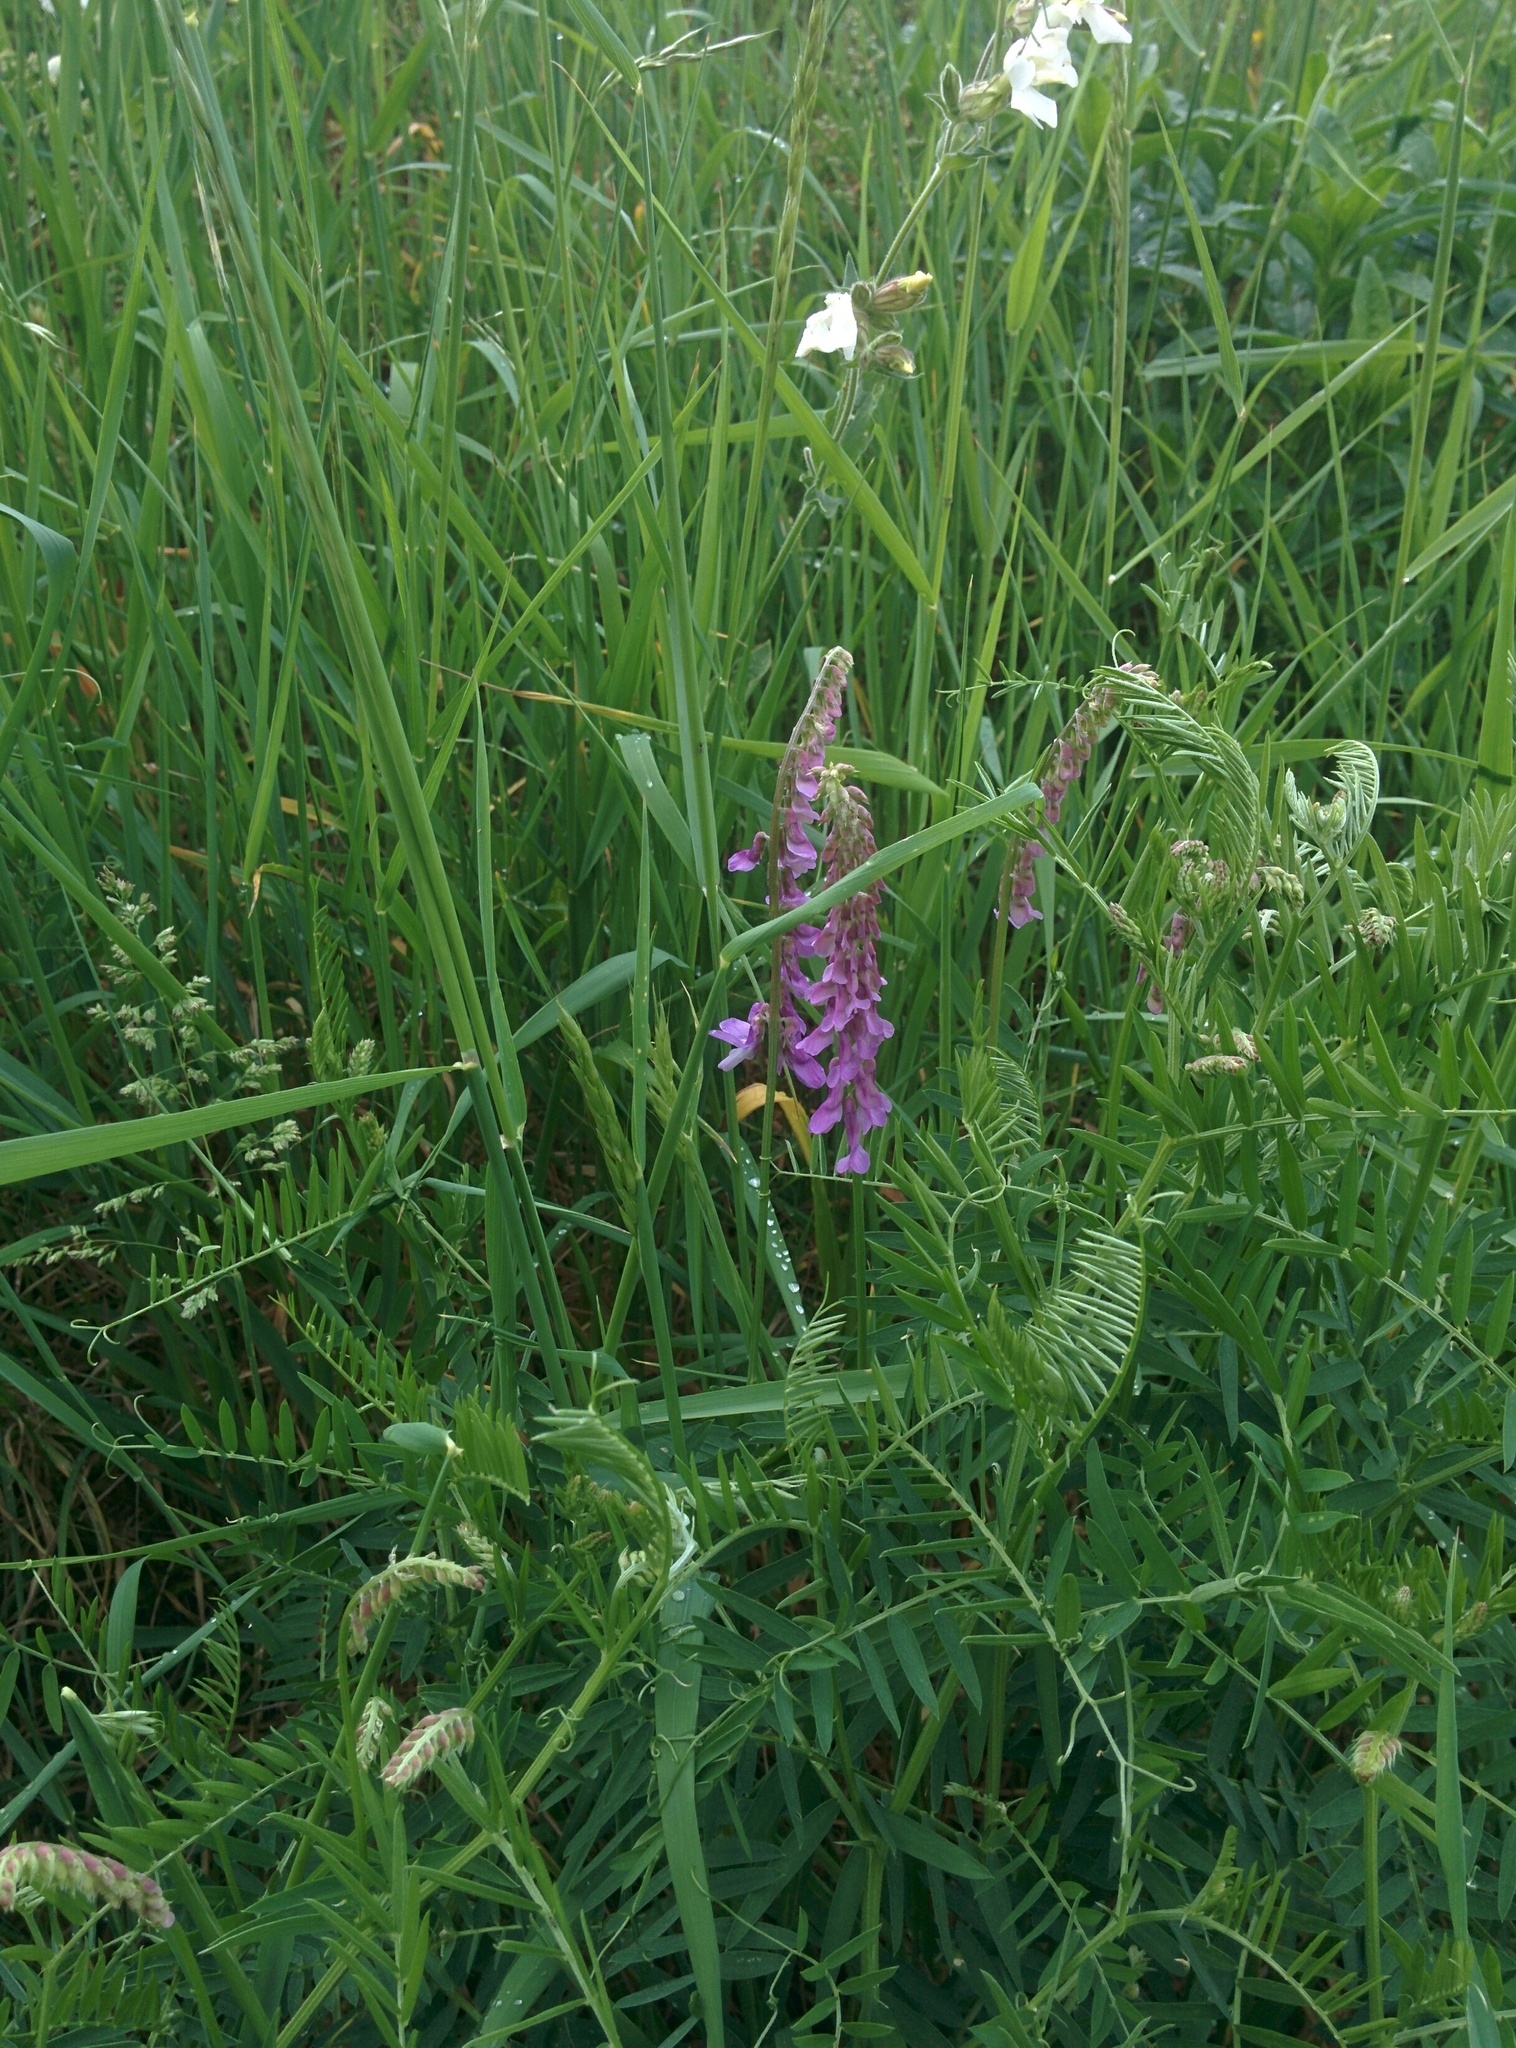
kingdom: Plantae
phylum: Tracheophyta
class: Magnoliopsida
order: Fabales
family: Fabaceae
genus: Vicia
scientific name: Vicia cracca
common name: Bird vetch
